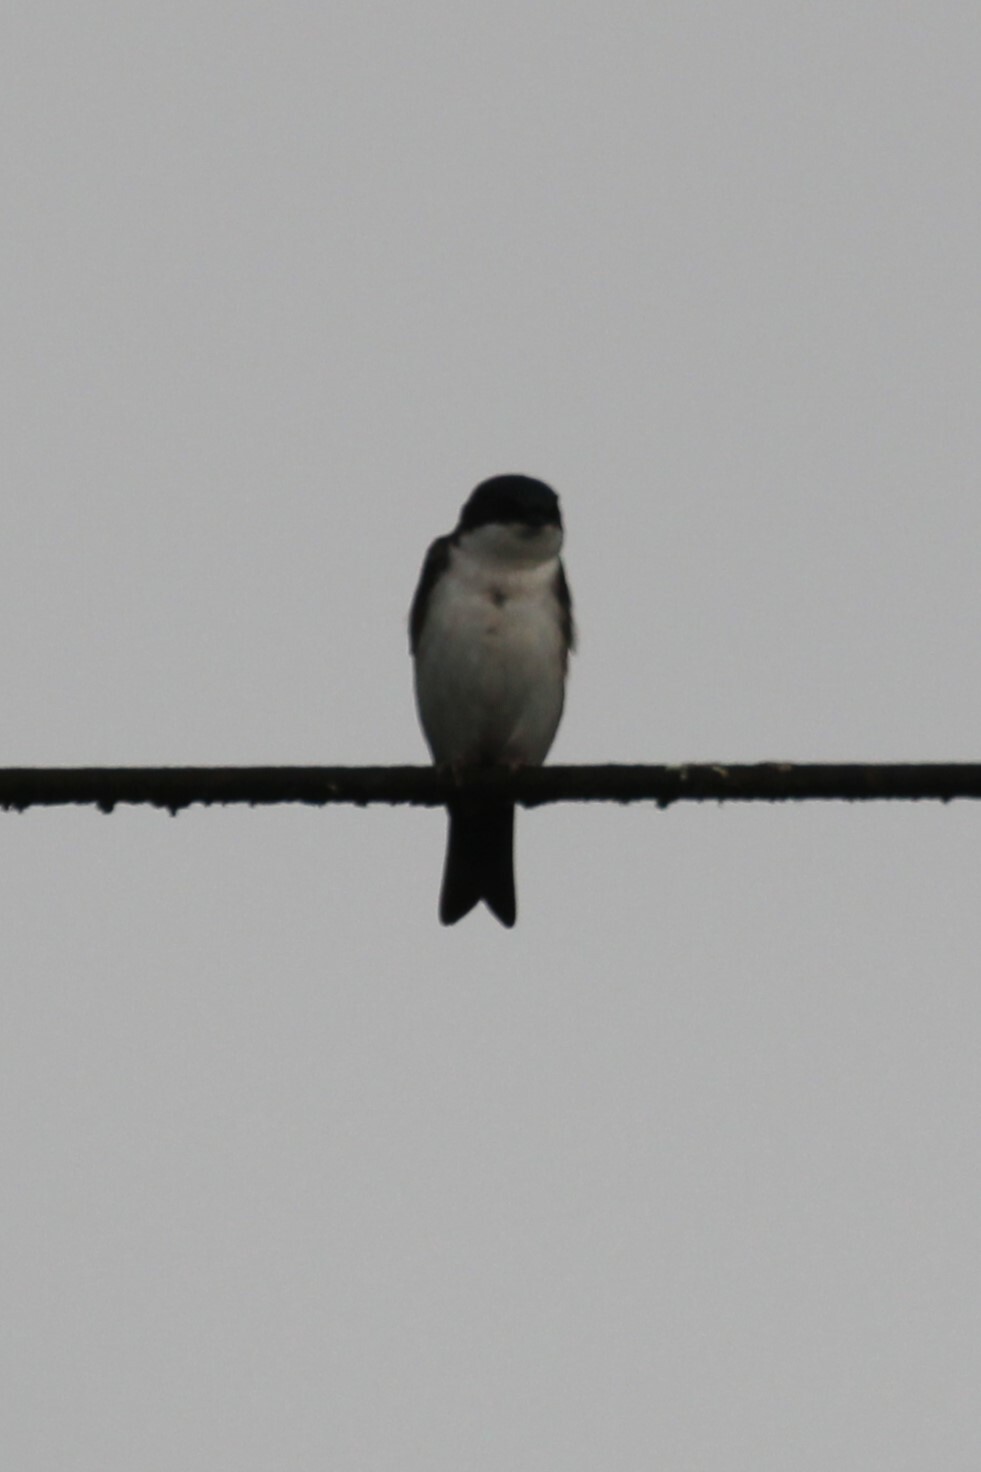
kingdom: Animalia
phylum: Chordata
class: Aves
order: Passeriformes
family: Hirundinidae
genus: Notiochelidon
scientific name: Notiochelidon cyanoleuca
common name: Blue-and-white swallow
